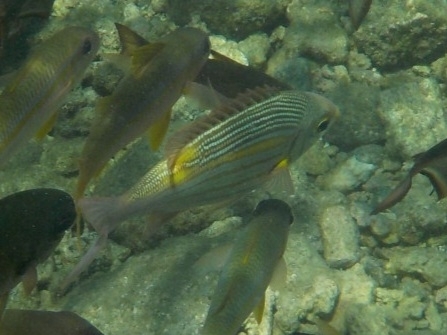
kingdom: Animalia
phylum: Chordata
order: Perciformes
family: Lethrinidae
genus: Gnathodentex
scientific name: Gnathodentex aureolineatus
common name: Gold-lined sea bream
